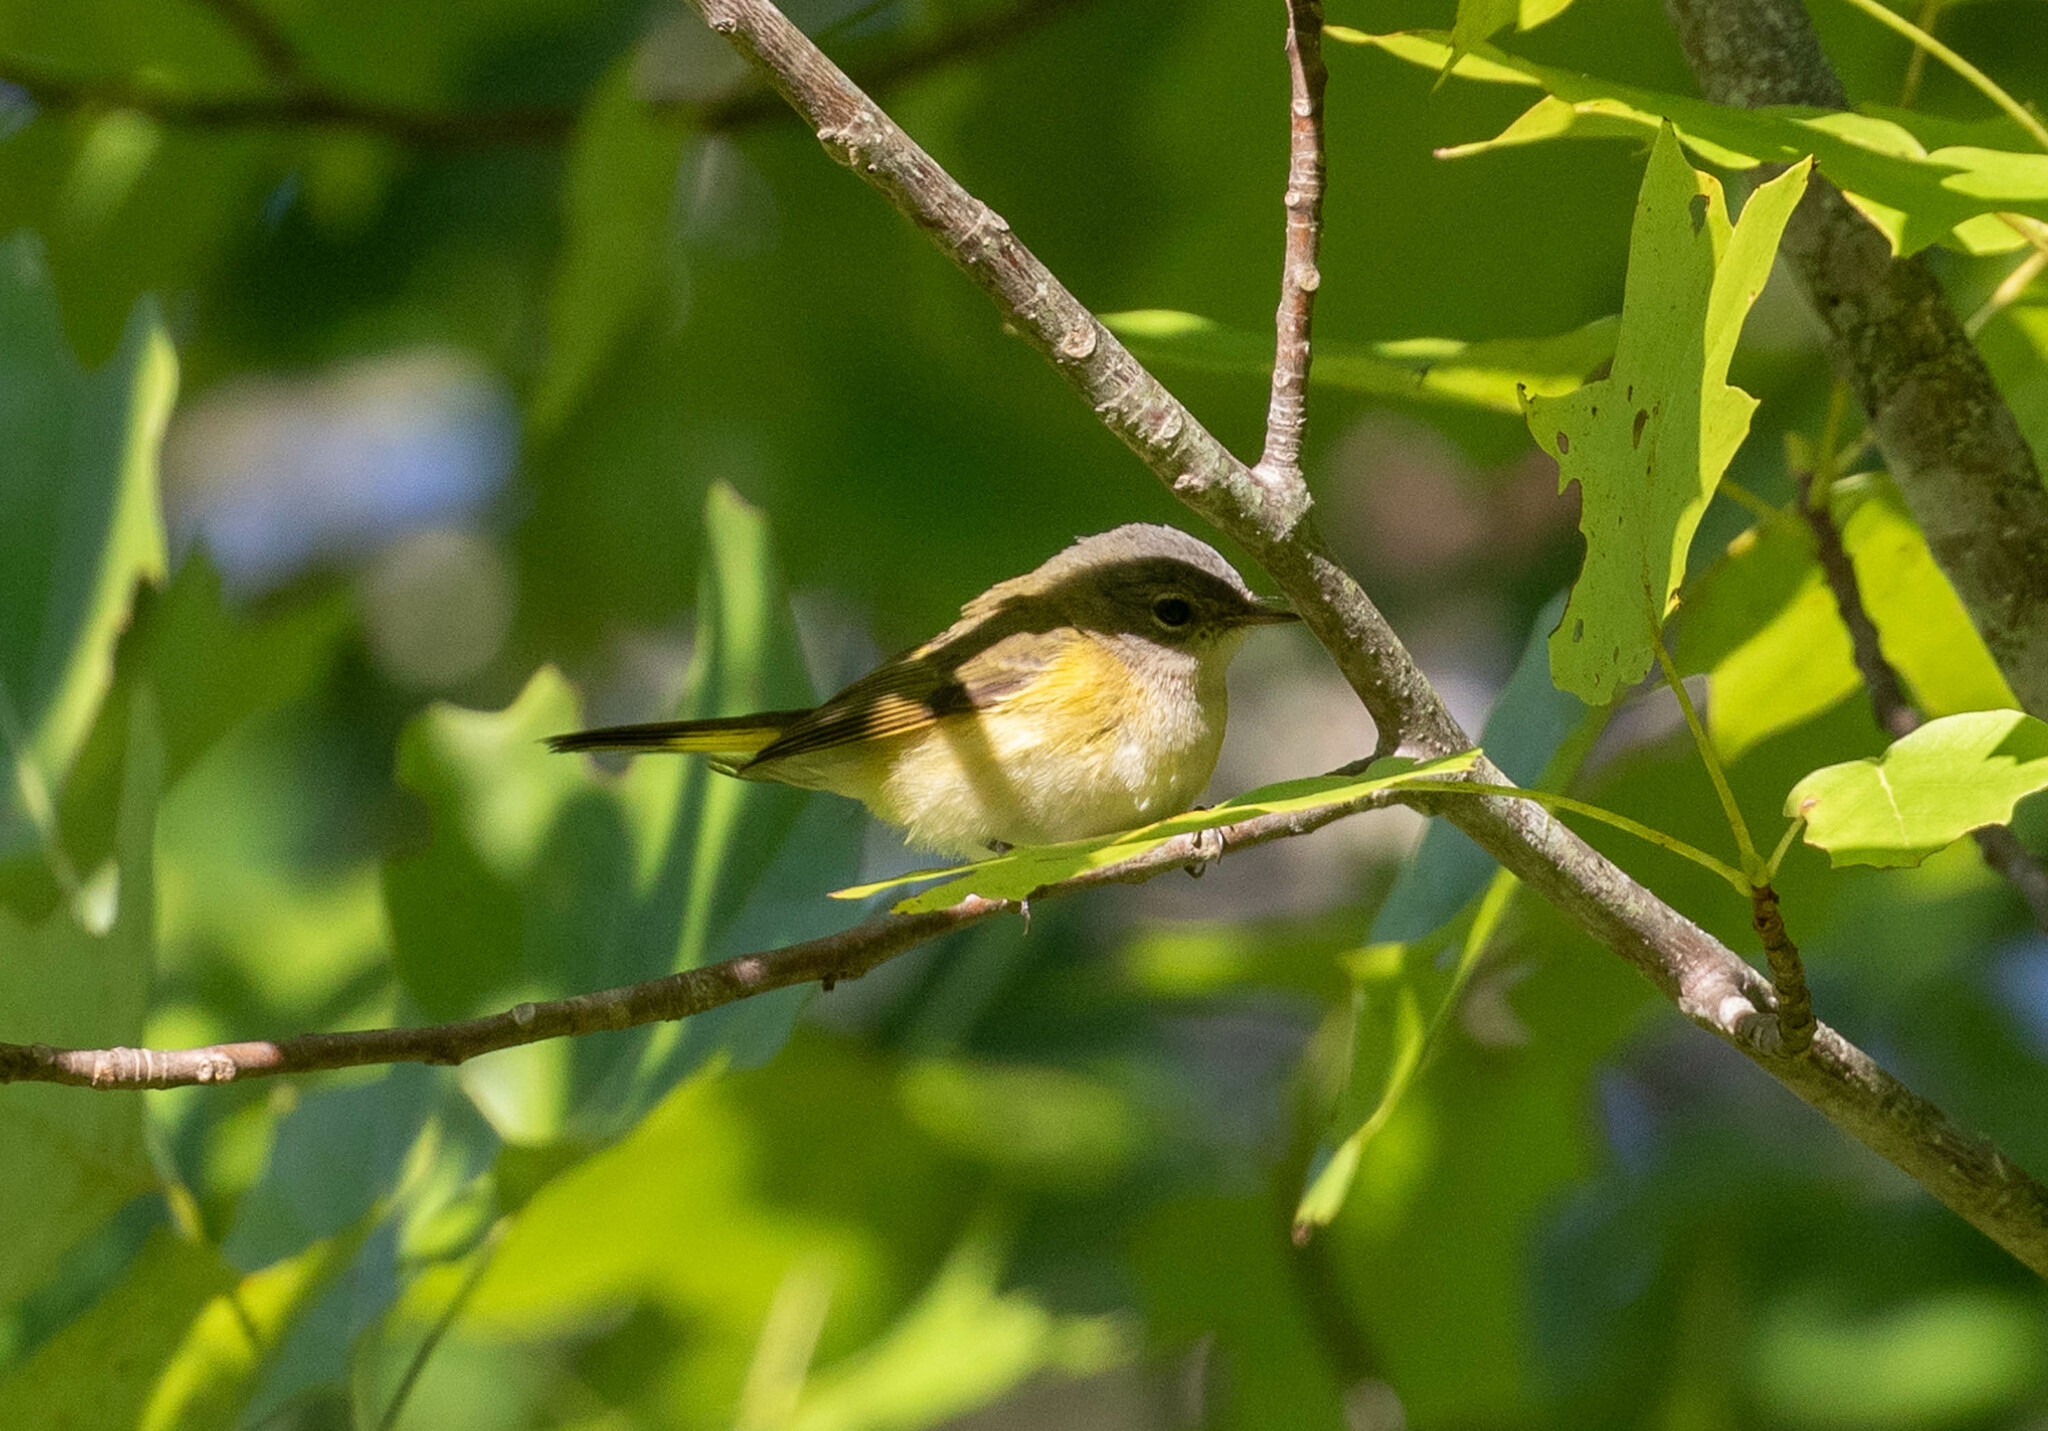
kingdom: Animalia
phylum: Chordata
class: Aves
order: Passeriformes
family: Parulidae
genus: Setophaga
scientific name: Setophaga ruticilla
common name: American redstart
